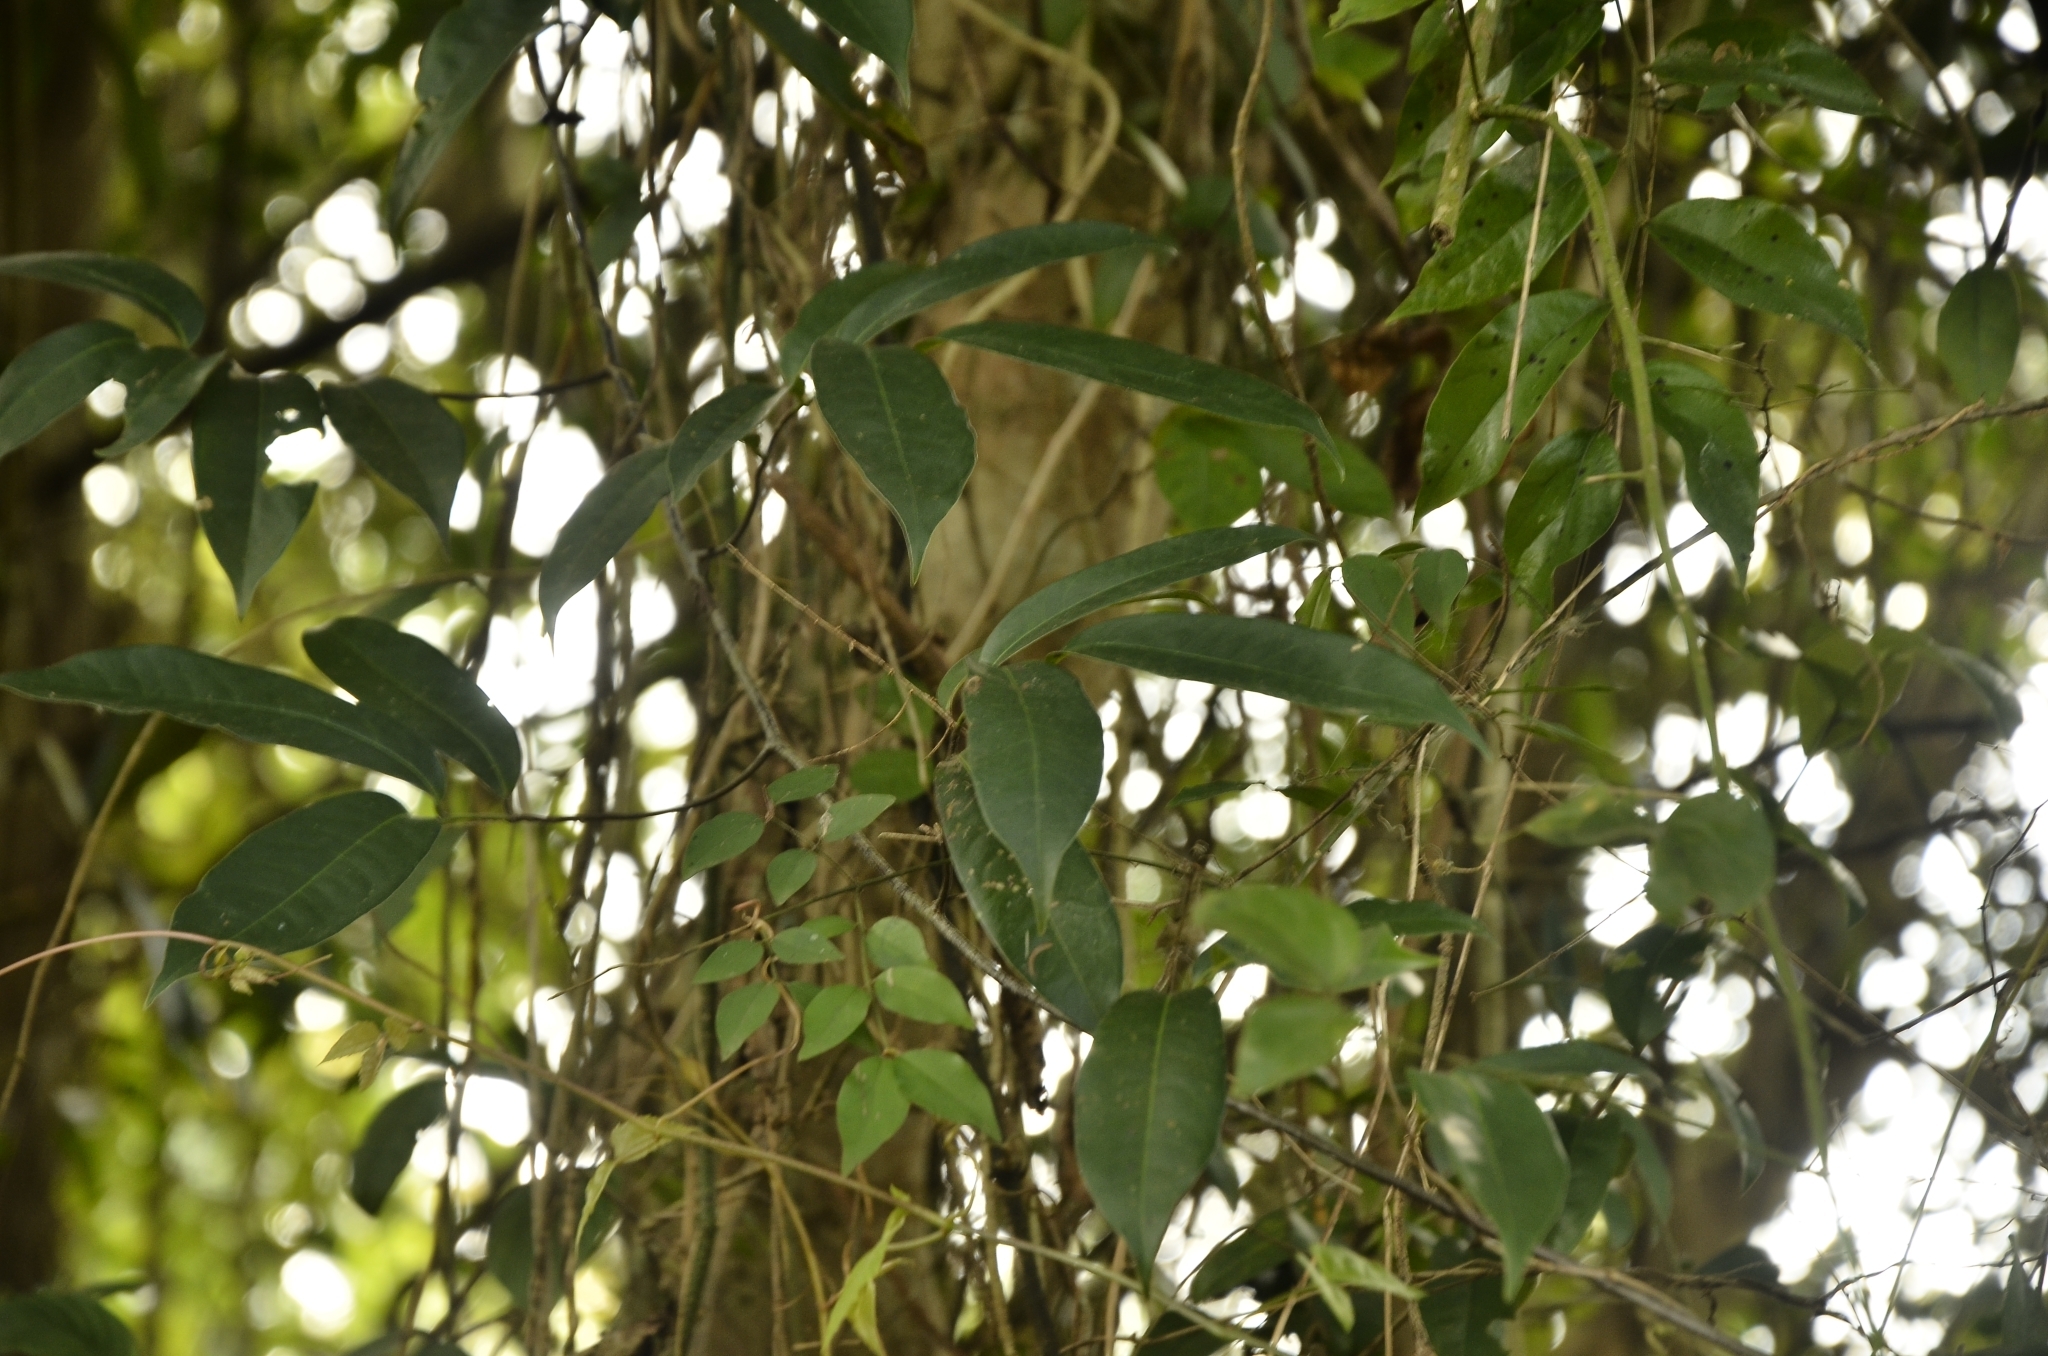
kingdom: Plantae
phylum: Tracheophyta
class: Magnoliopsida
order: Magnoliales
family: Annonaceae
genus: Uvaria
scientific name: Uvaria narum
